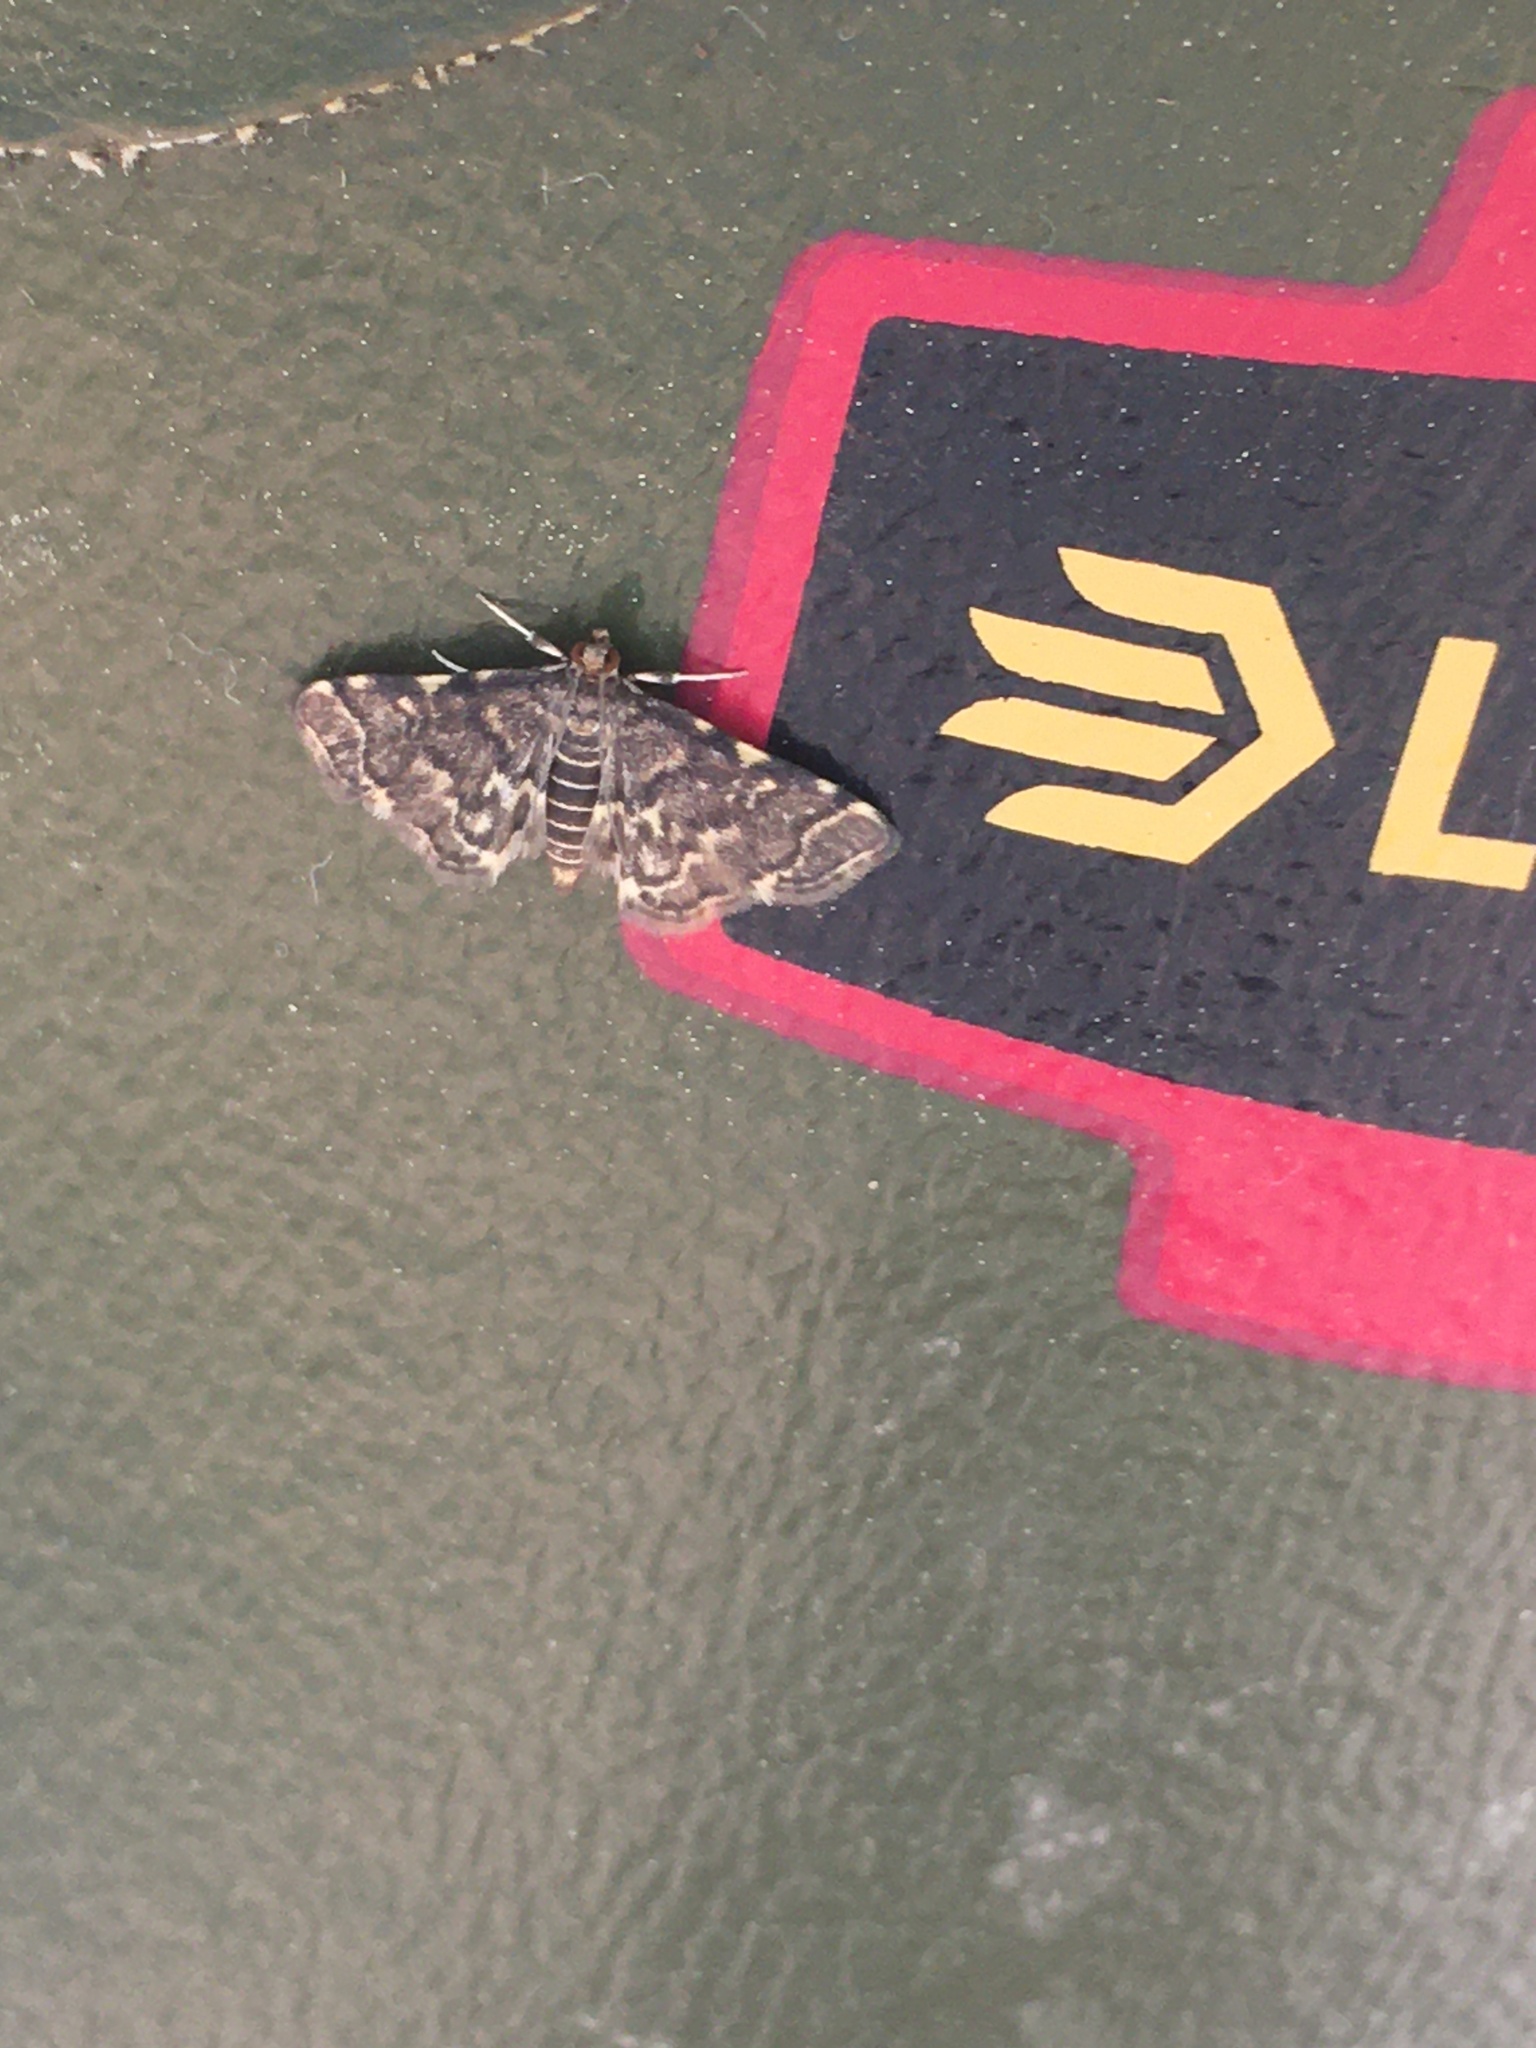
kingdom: Animalia
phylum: Arthropoda
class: Insecta
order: Lepidoptera
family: Crambidae
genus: Anageshna
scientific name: Anageshna primordialis
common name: Yellow-spotted webworm moth
